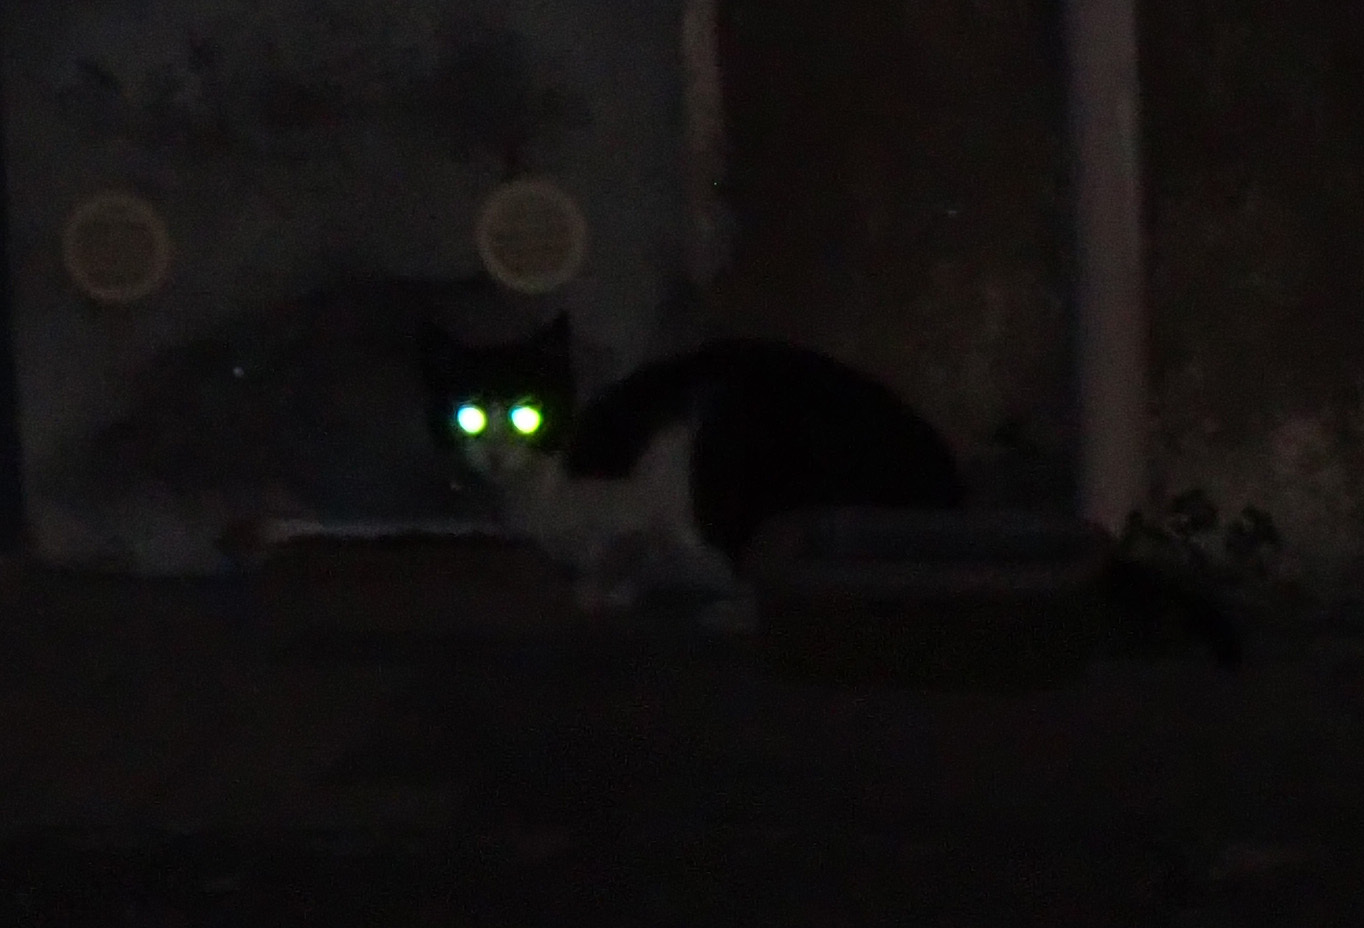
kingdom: Animalia
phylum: Chordata
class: Mammalia
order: Carnivora
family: Felidae
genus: Felis
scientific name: Felis catus
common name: Domestic cat
